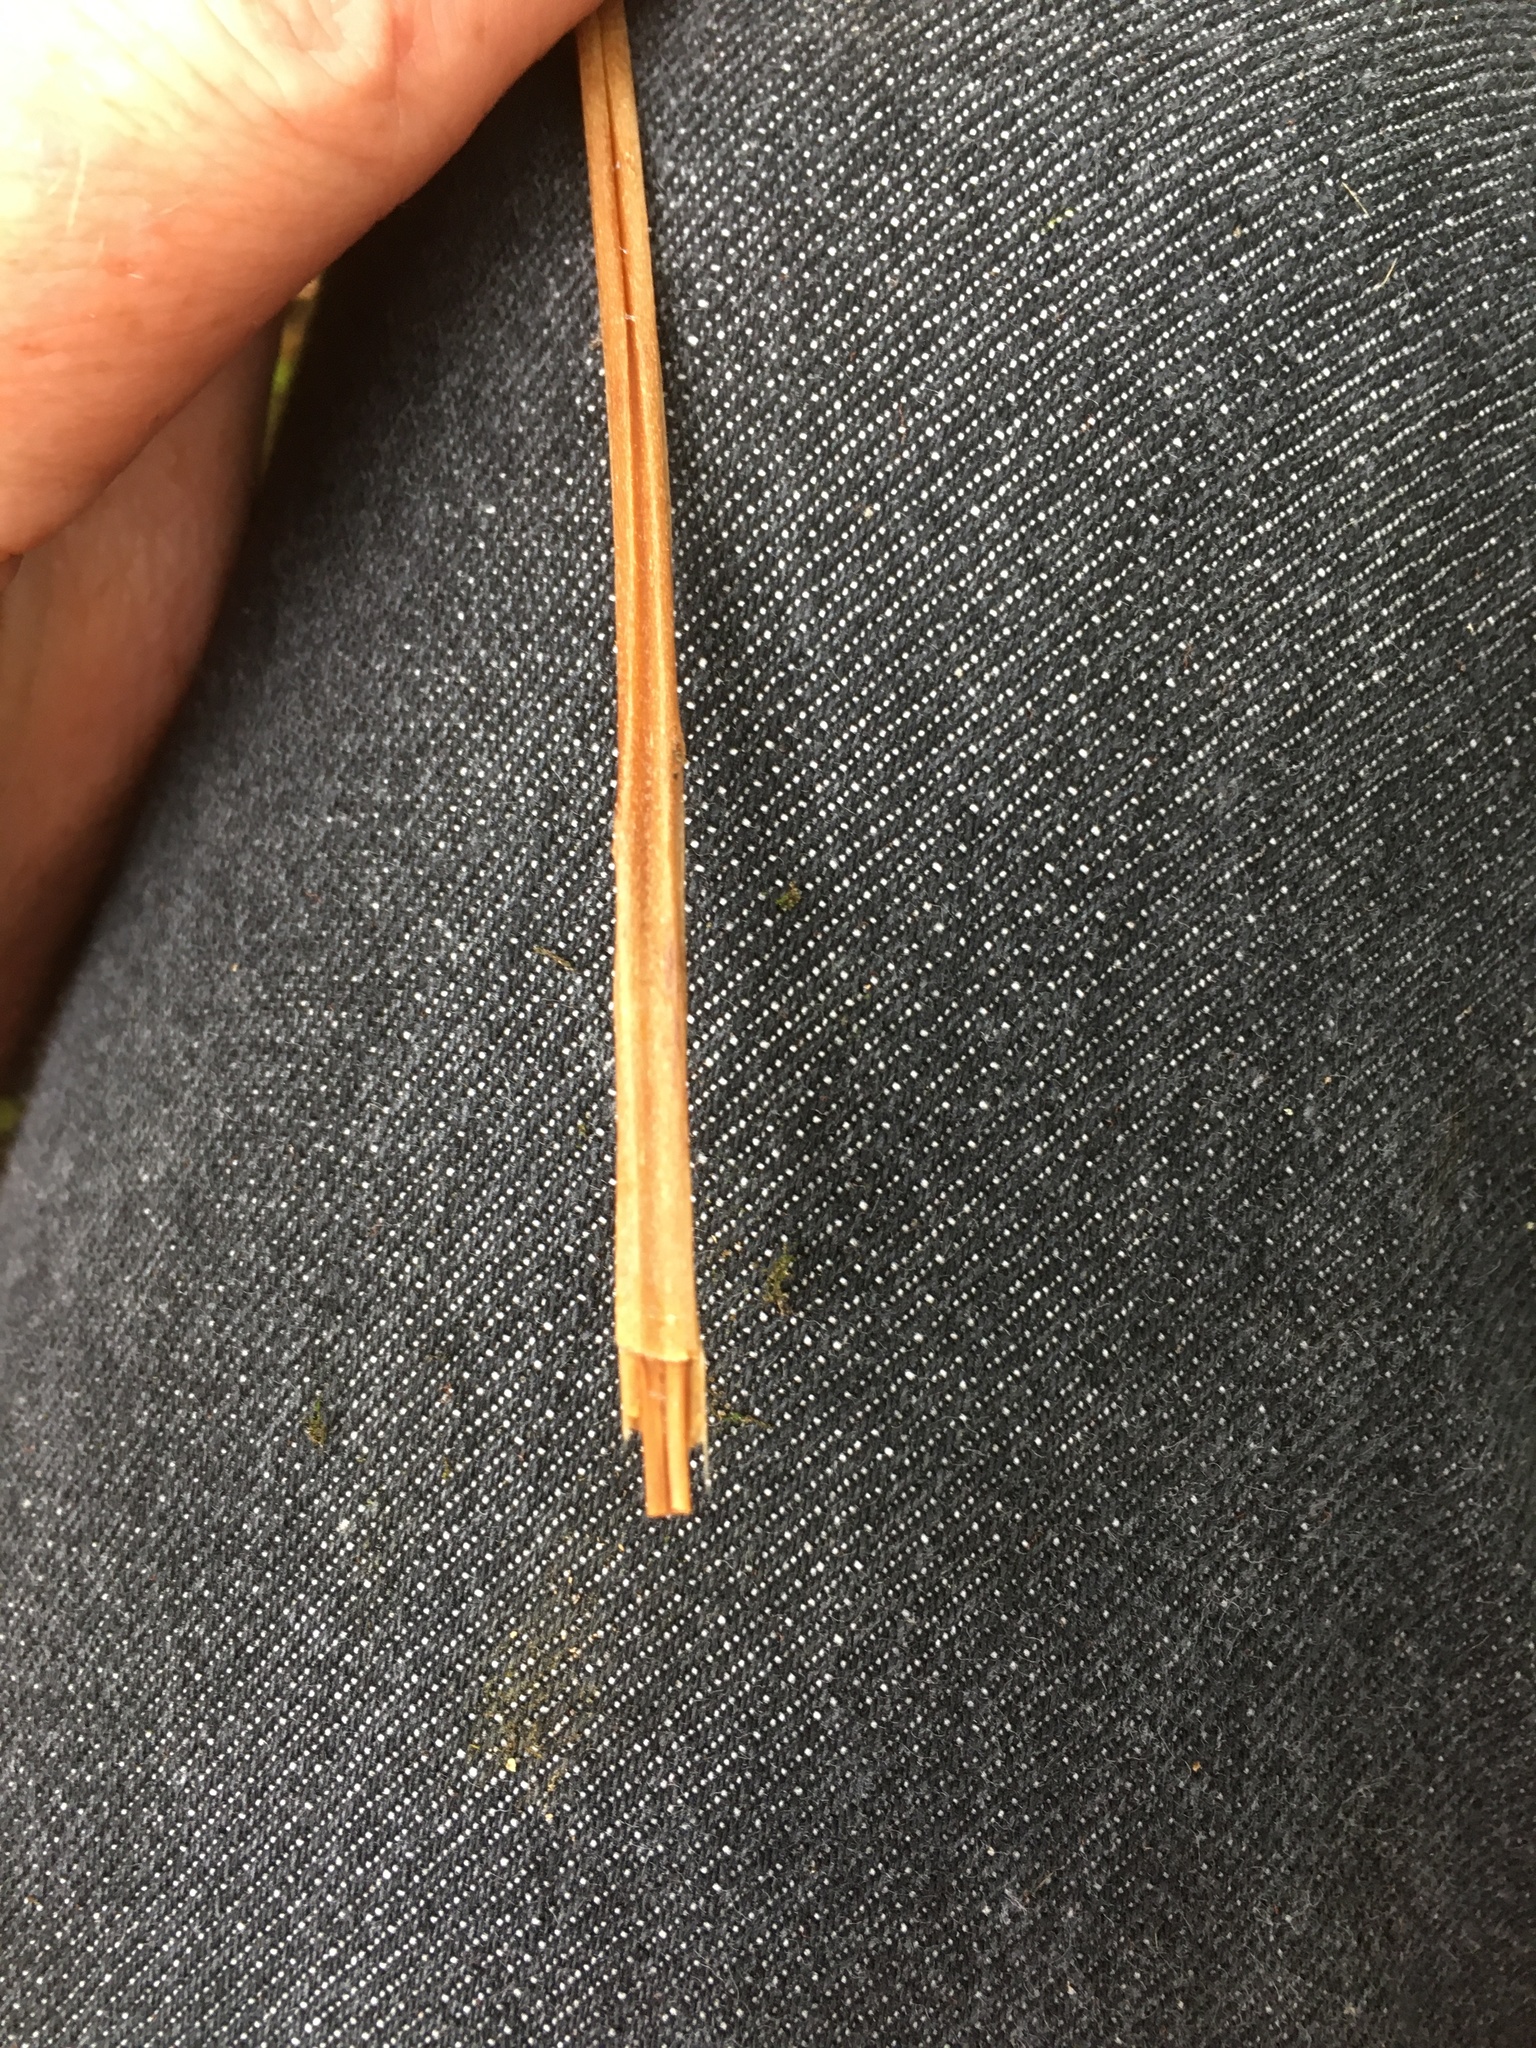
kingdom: Plantae
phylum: Tracheophyta
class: Polypodiopsida
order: Polypodiales
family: Onocleaceae
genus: Matteuccia
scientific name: Matteuccia struthiopteris
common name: Ostrich fern
